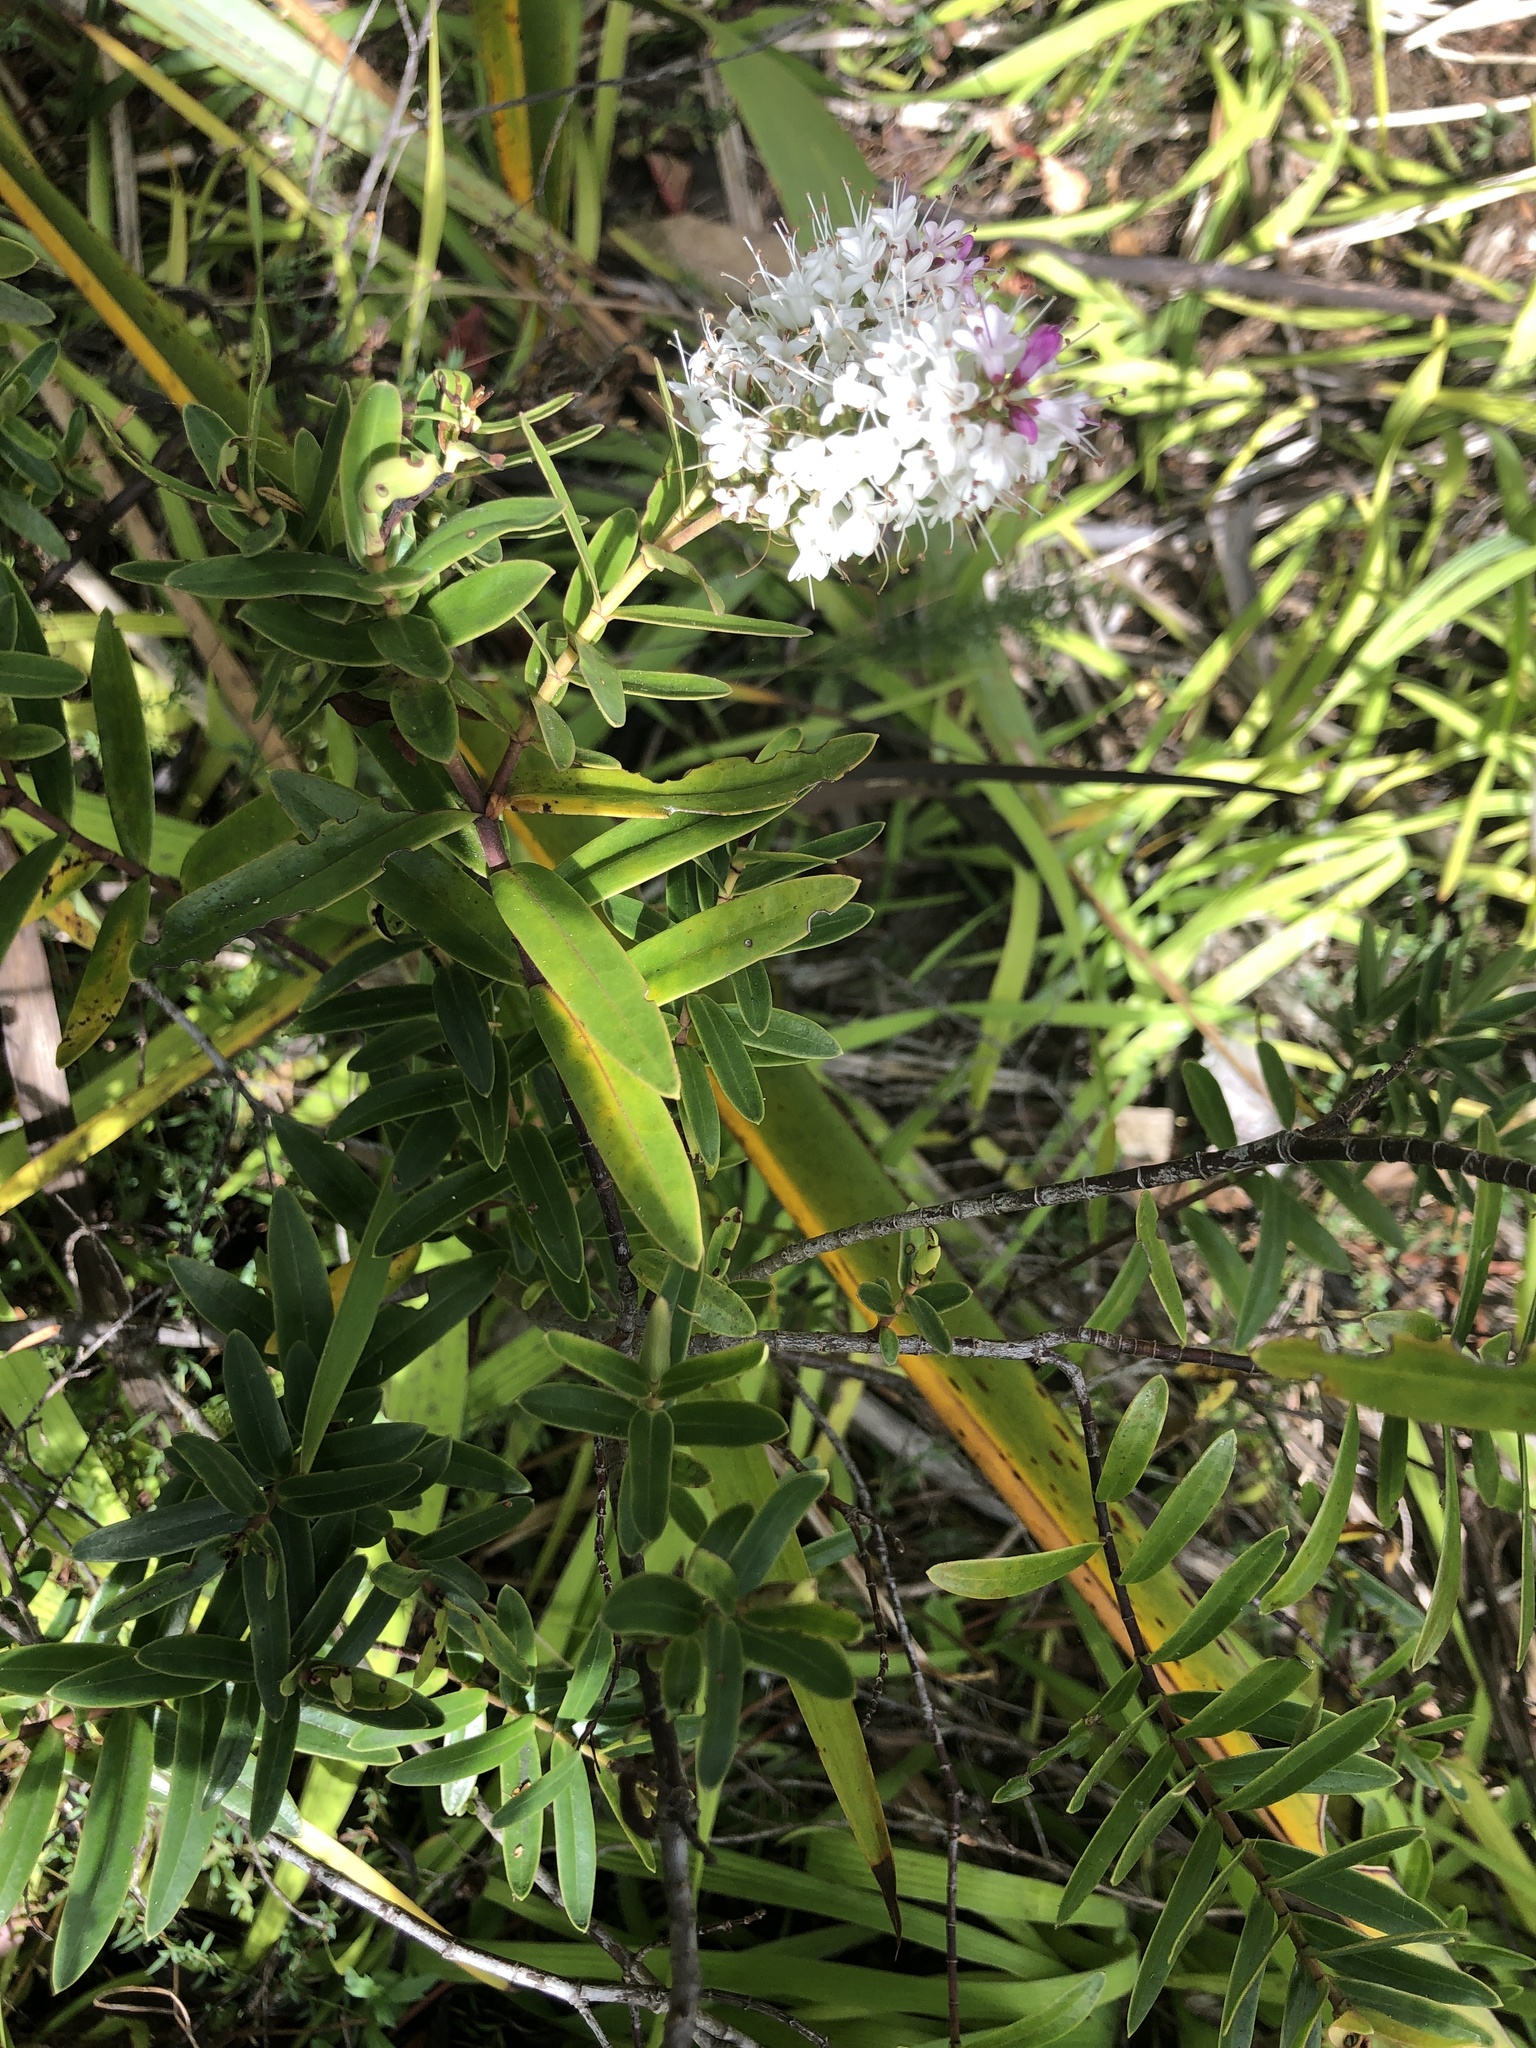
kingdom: Plantae
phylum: Tracheophyta
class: Magnoliopsida
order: Lamiales
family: Plantaginaceae
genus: Veronica
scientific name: Veronica bishopiana
